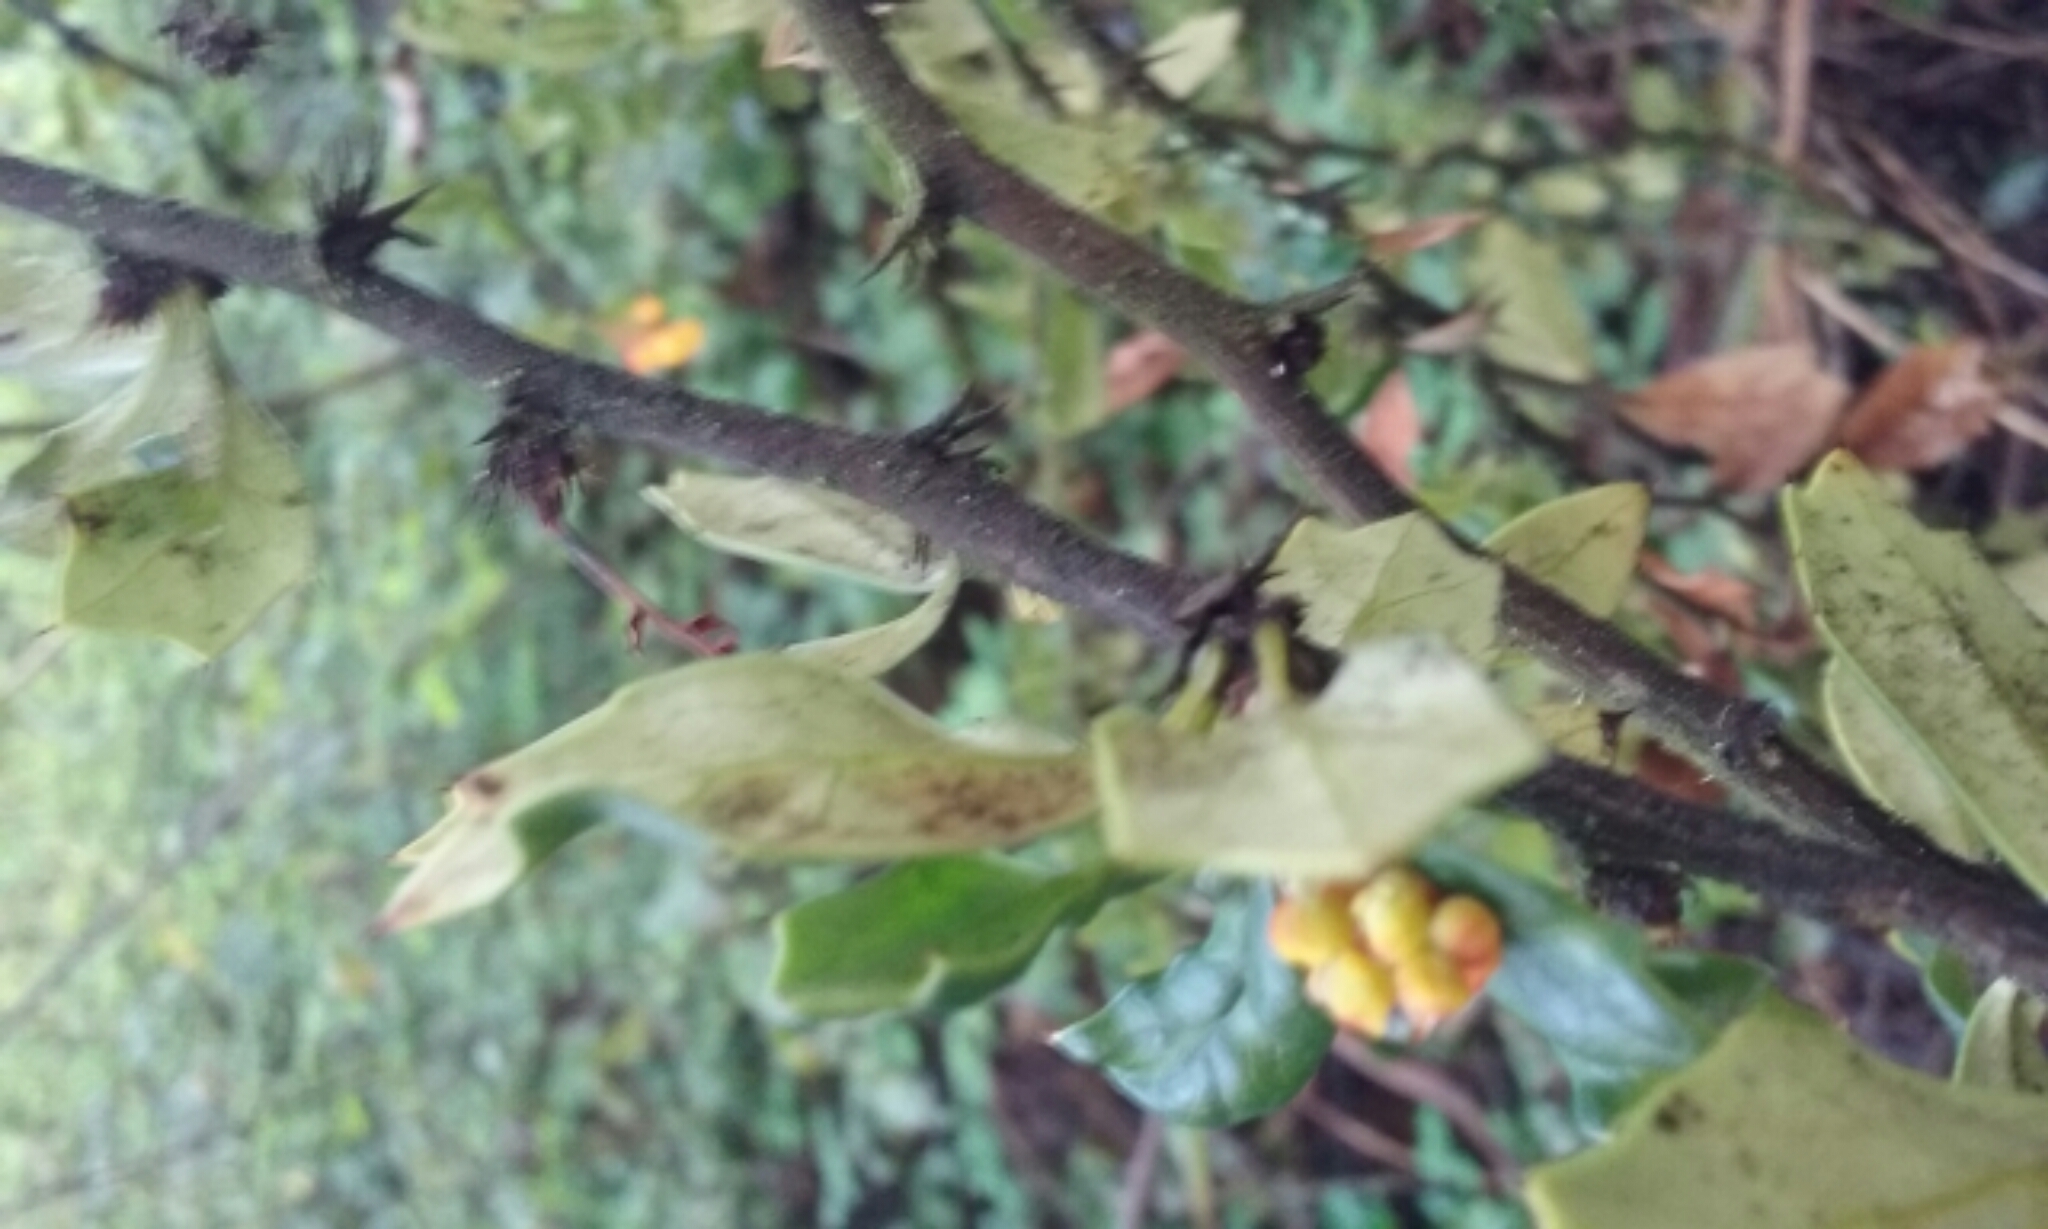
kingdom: Plantae
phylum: Tracheophyta
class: Magnoliopsida
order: Ranunculales
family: Berberidaceae
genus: Berberis
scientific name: Berberis darwinii
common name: Darwin's barberry
